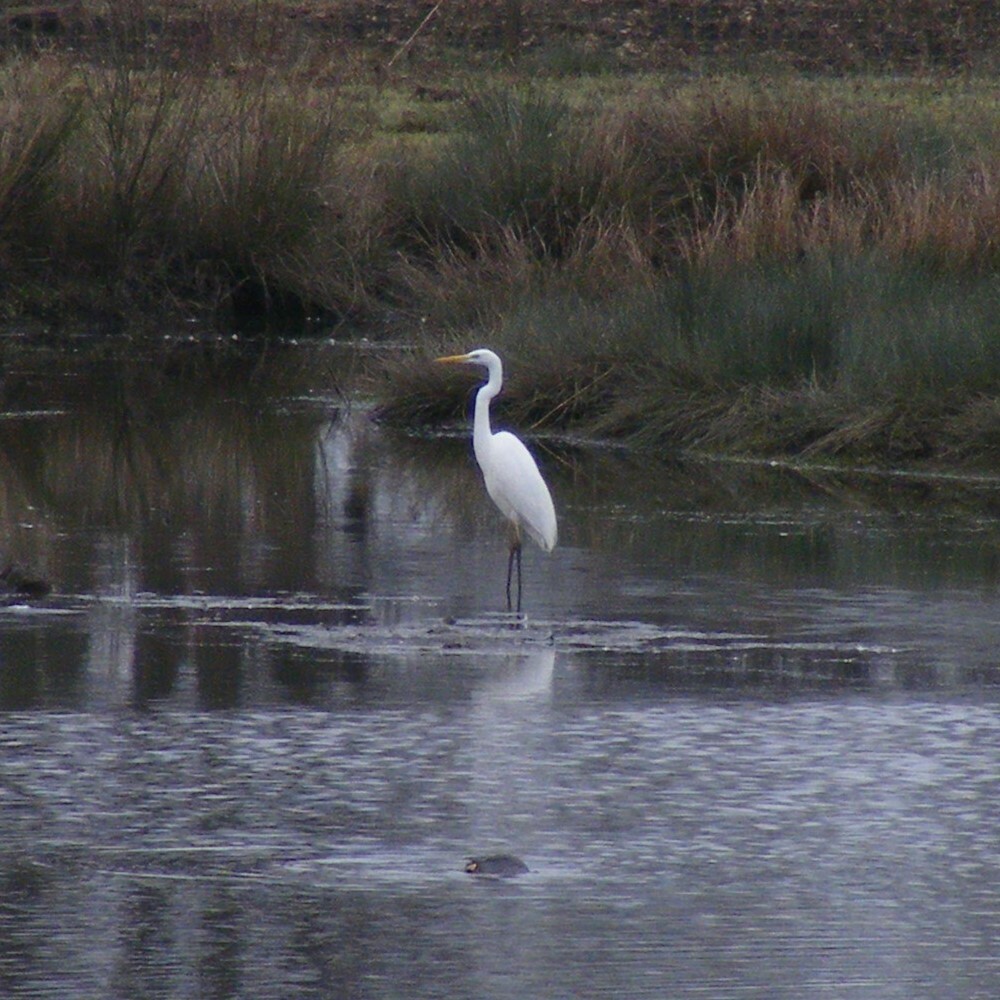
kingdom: Animalia
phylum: Chordata
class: Aves
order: Pelecaniformes
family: Ardeidae
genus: Ardea
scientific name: Ardea alba
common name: Great egret
